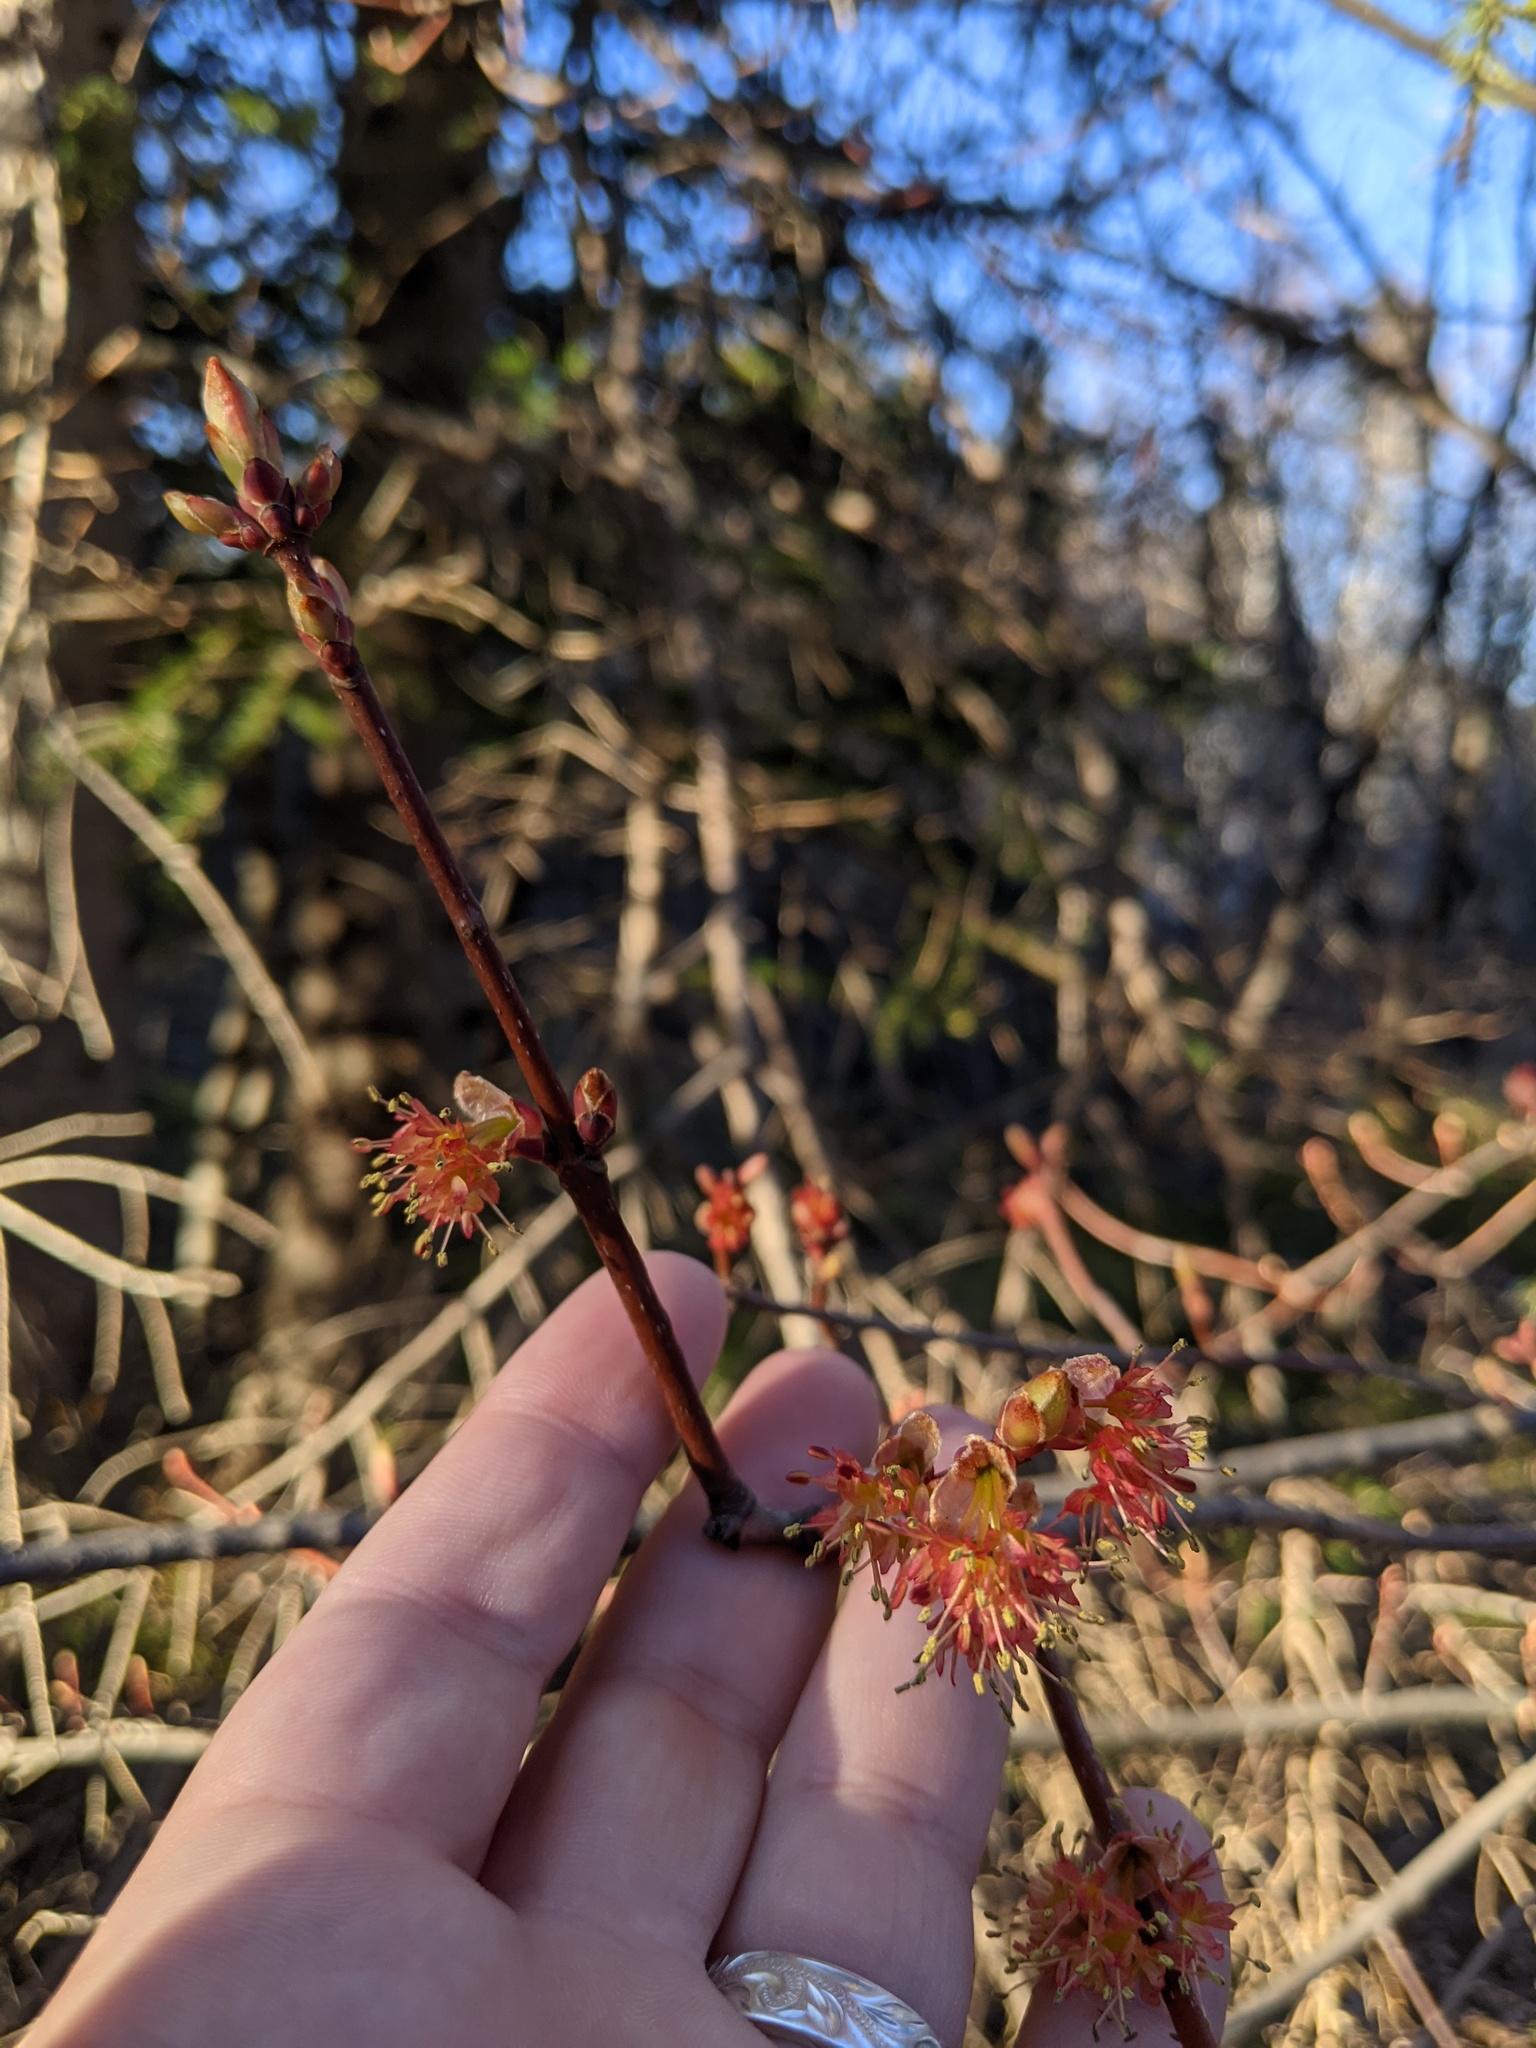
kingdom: Plantae
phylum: Tracheophyta
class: Magnoliopsida
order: Sapindales
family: Sapindaceae
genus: Acer
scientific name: Acer rubrum
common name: Red maple
